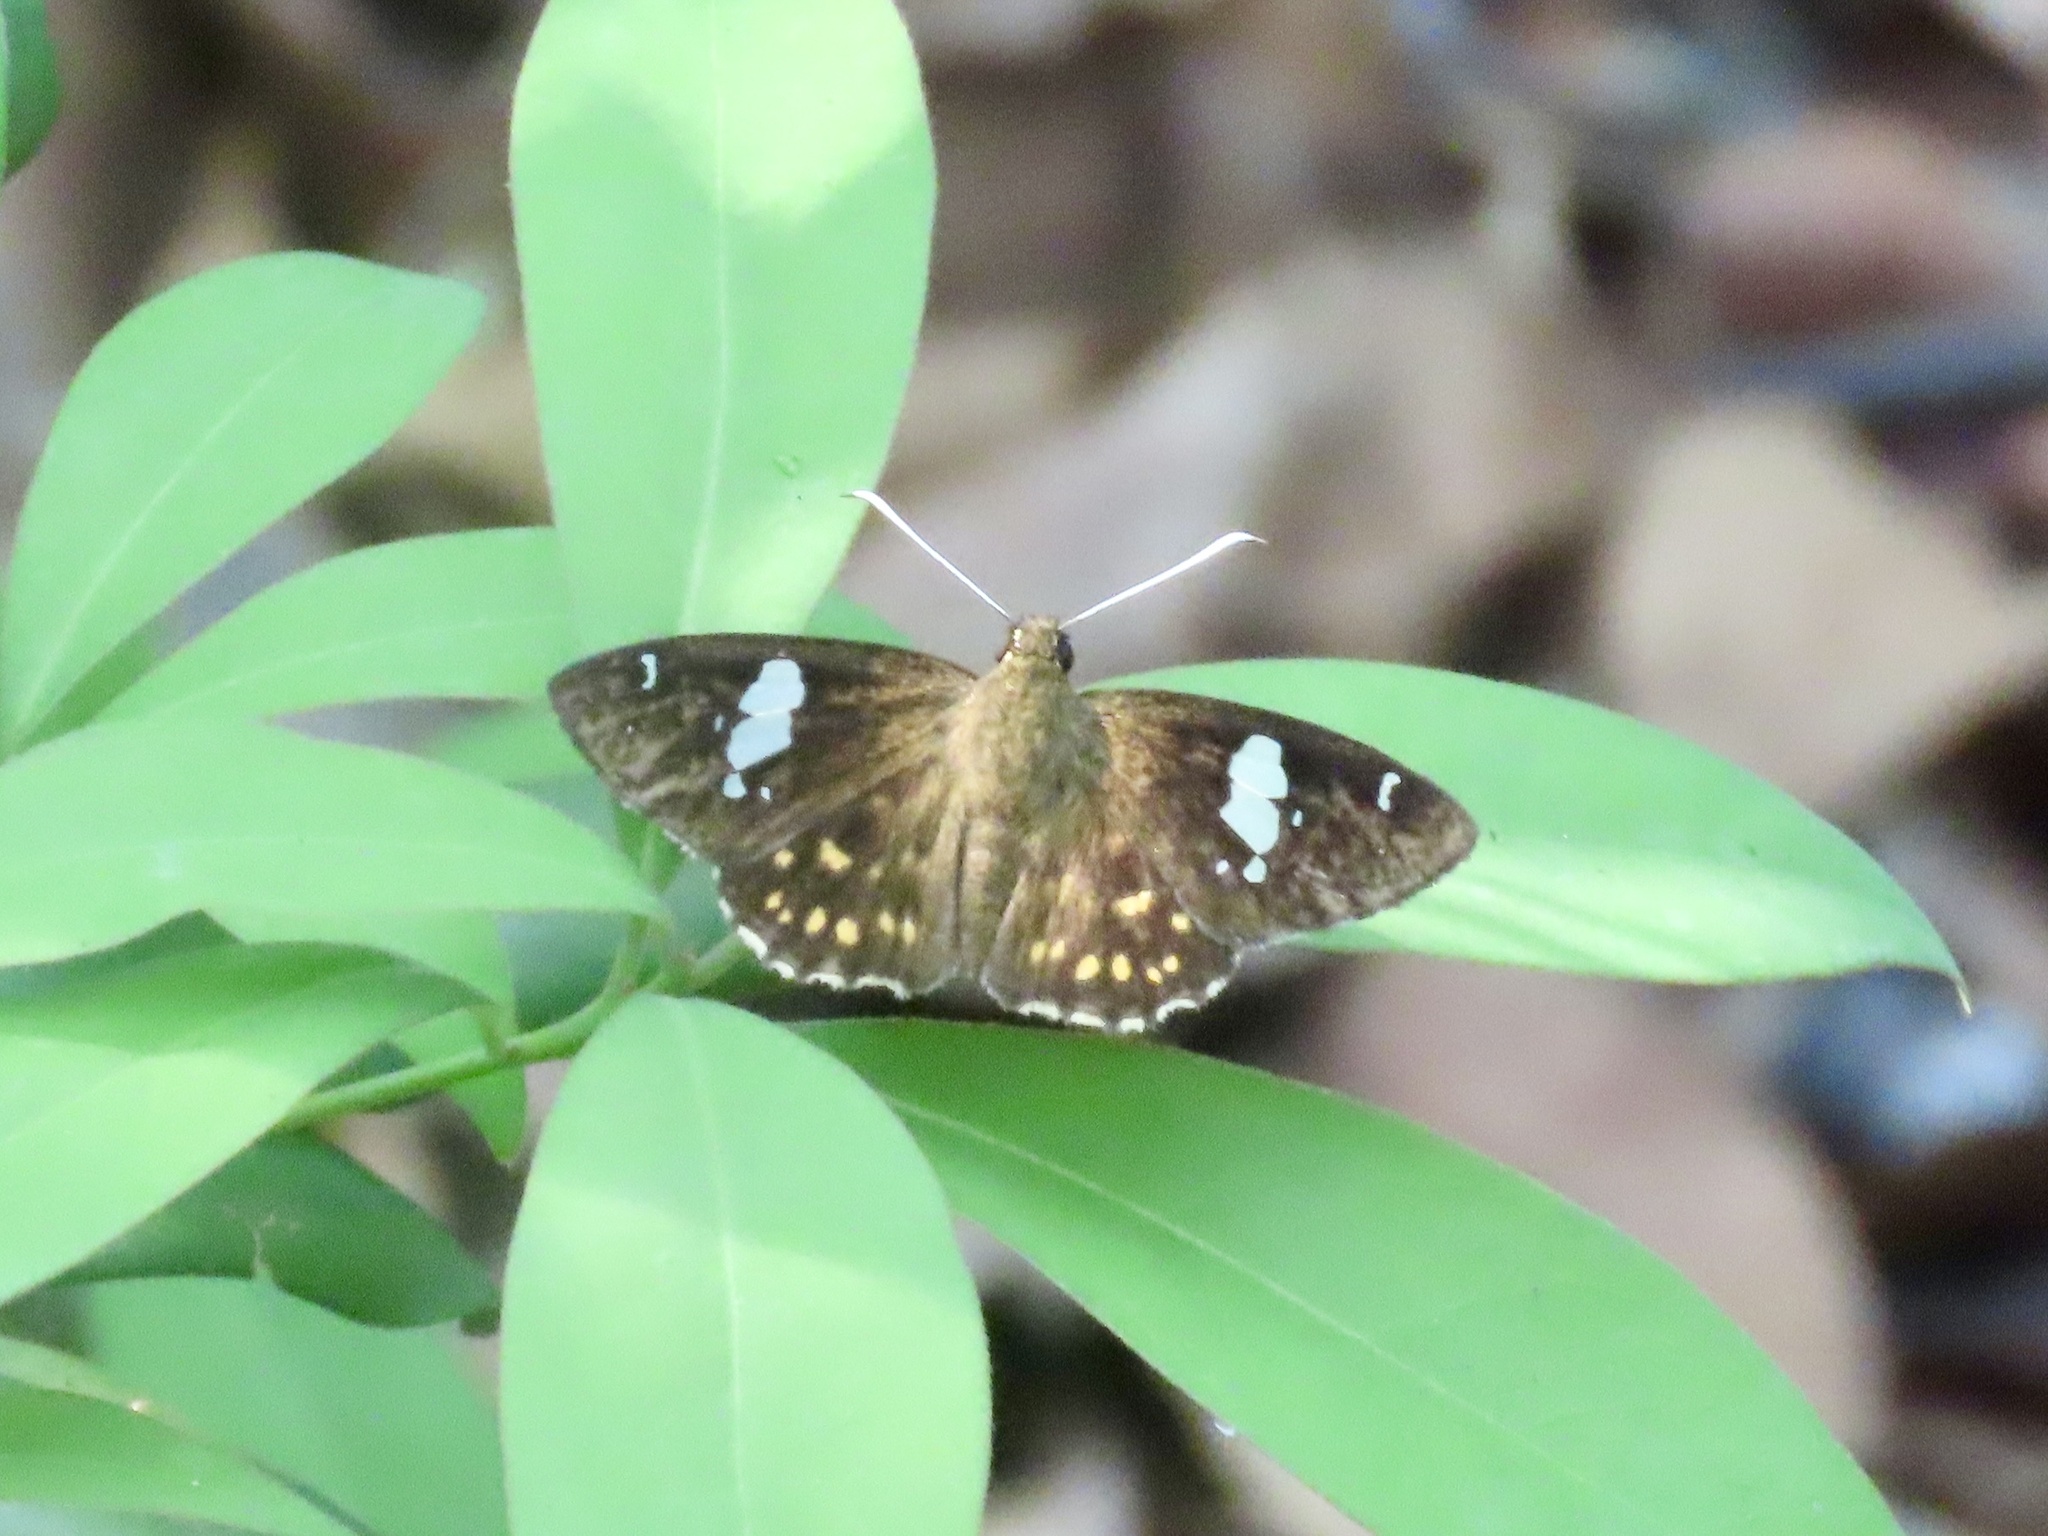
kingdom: Animalia
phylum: Arthropoda
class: Insecta
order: Lepidoptera
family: Hesperiidae
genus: Celaenorrhinus
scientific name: Celaenorrhinus leucocera
